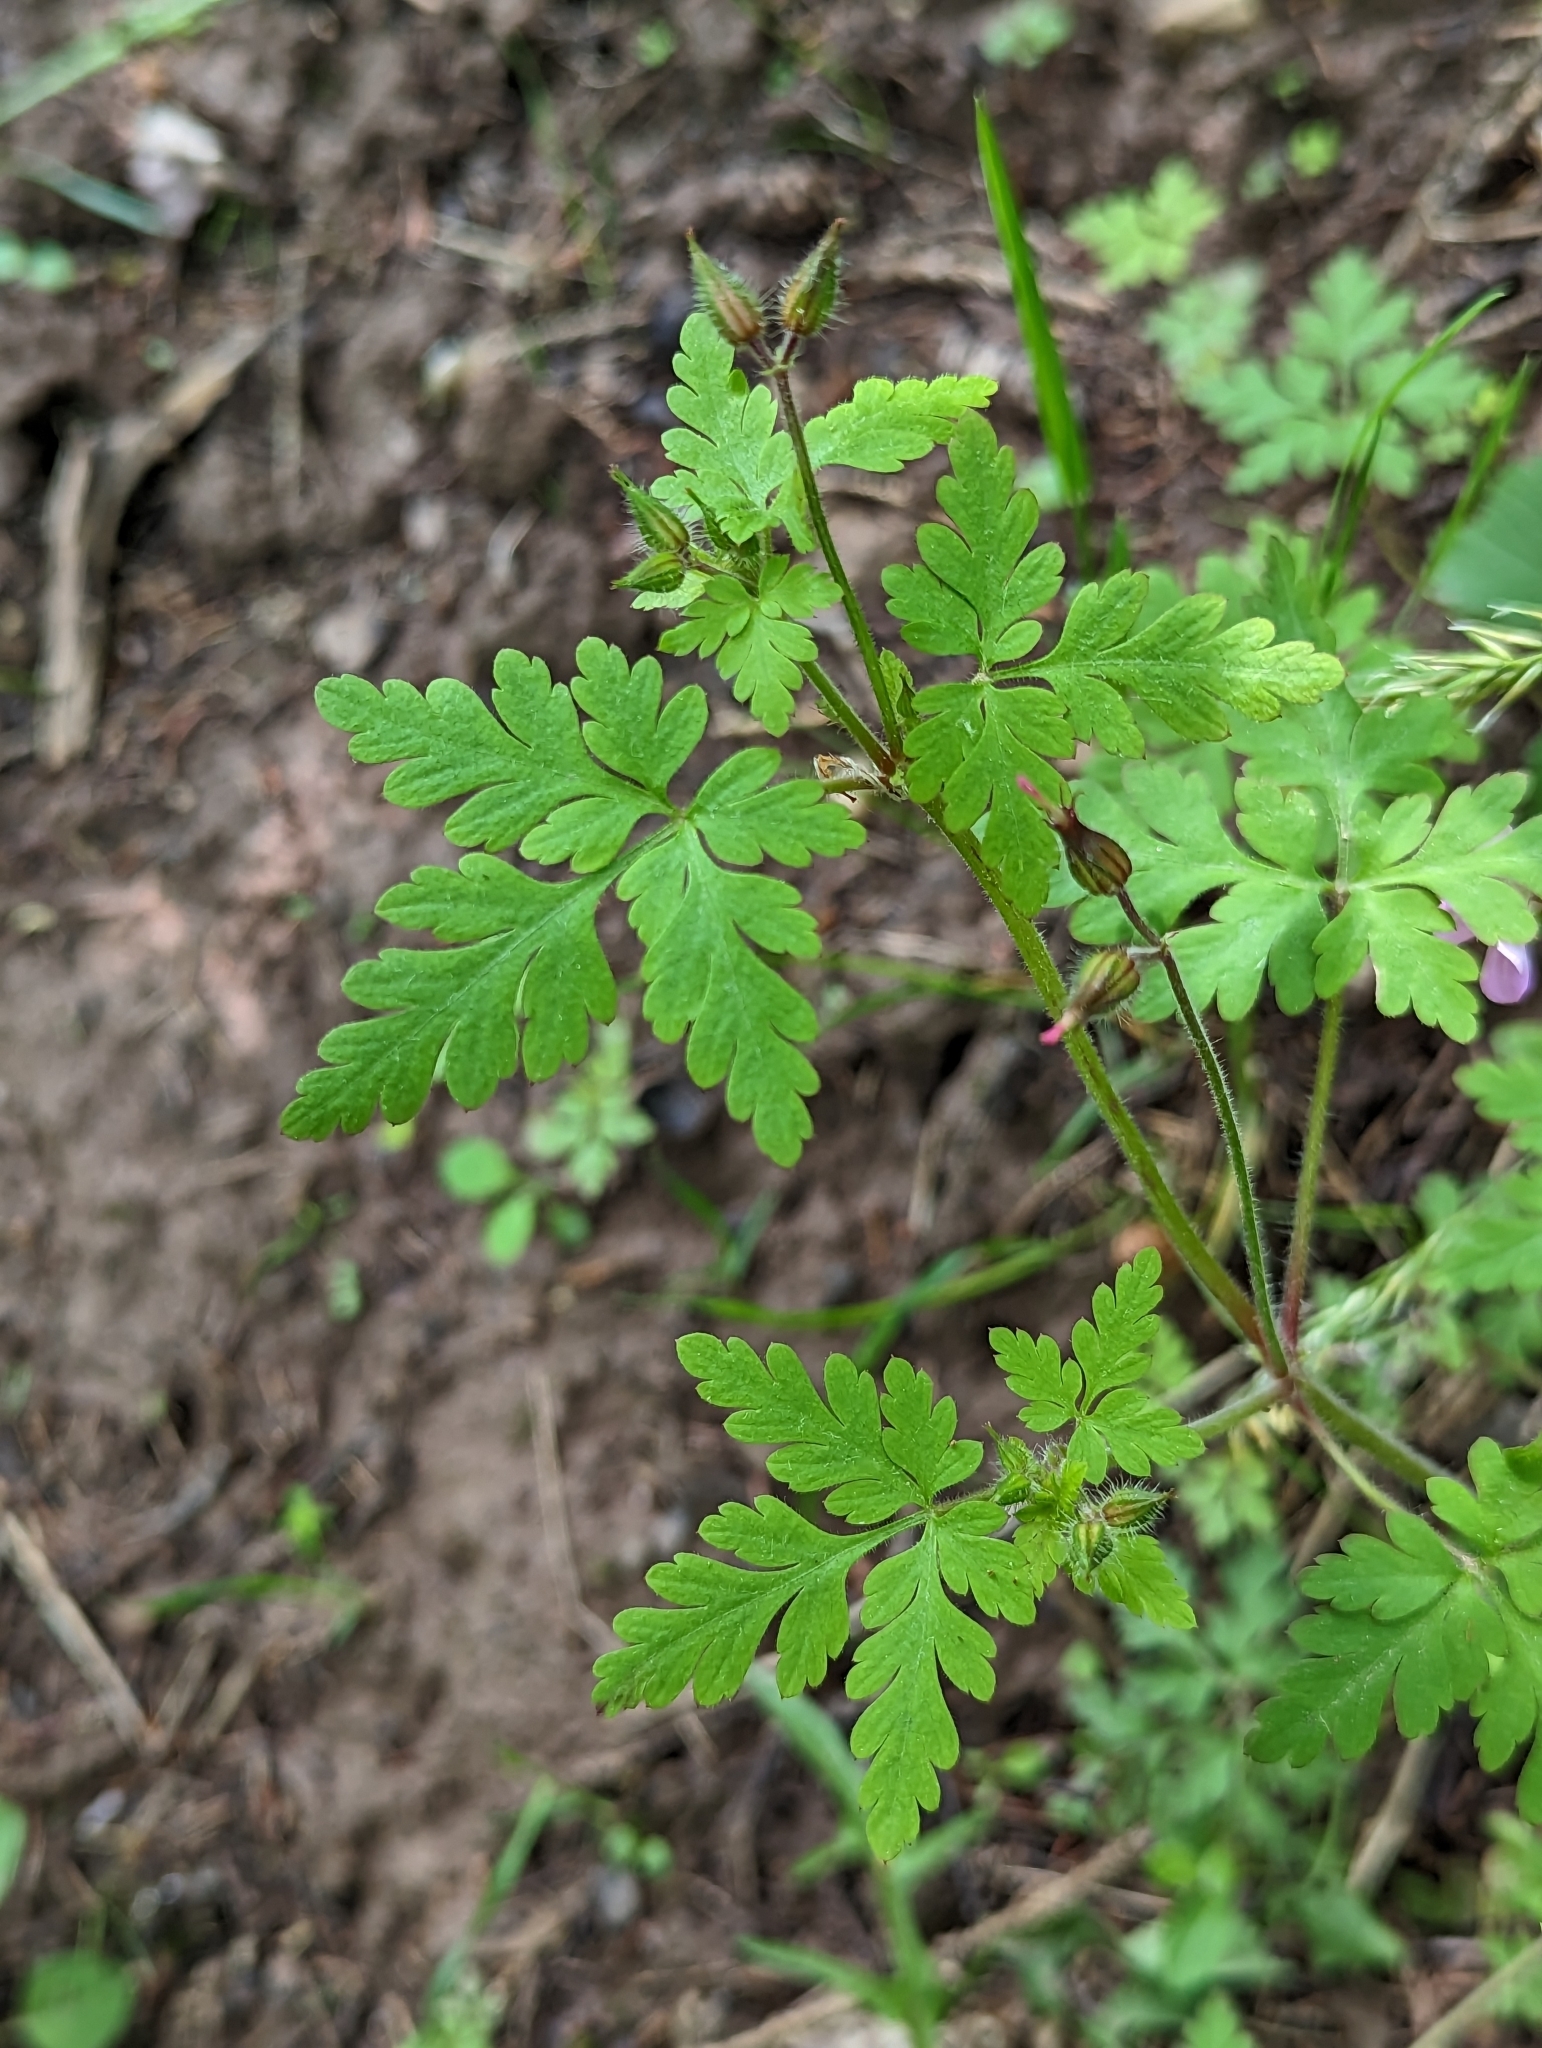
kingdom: Plantae
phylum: Tracheophyta
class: Magnoliopsida
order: Geraniales
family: Geraniaceae
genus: Geranium
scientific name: Geranium robertianum
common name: Herb-robert
